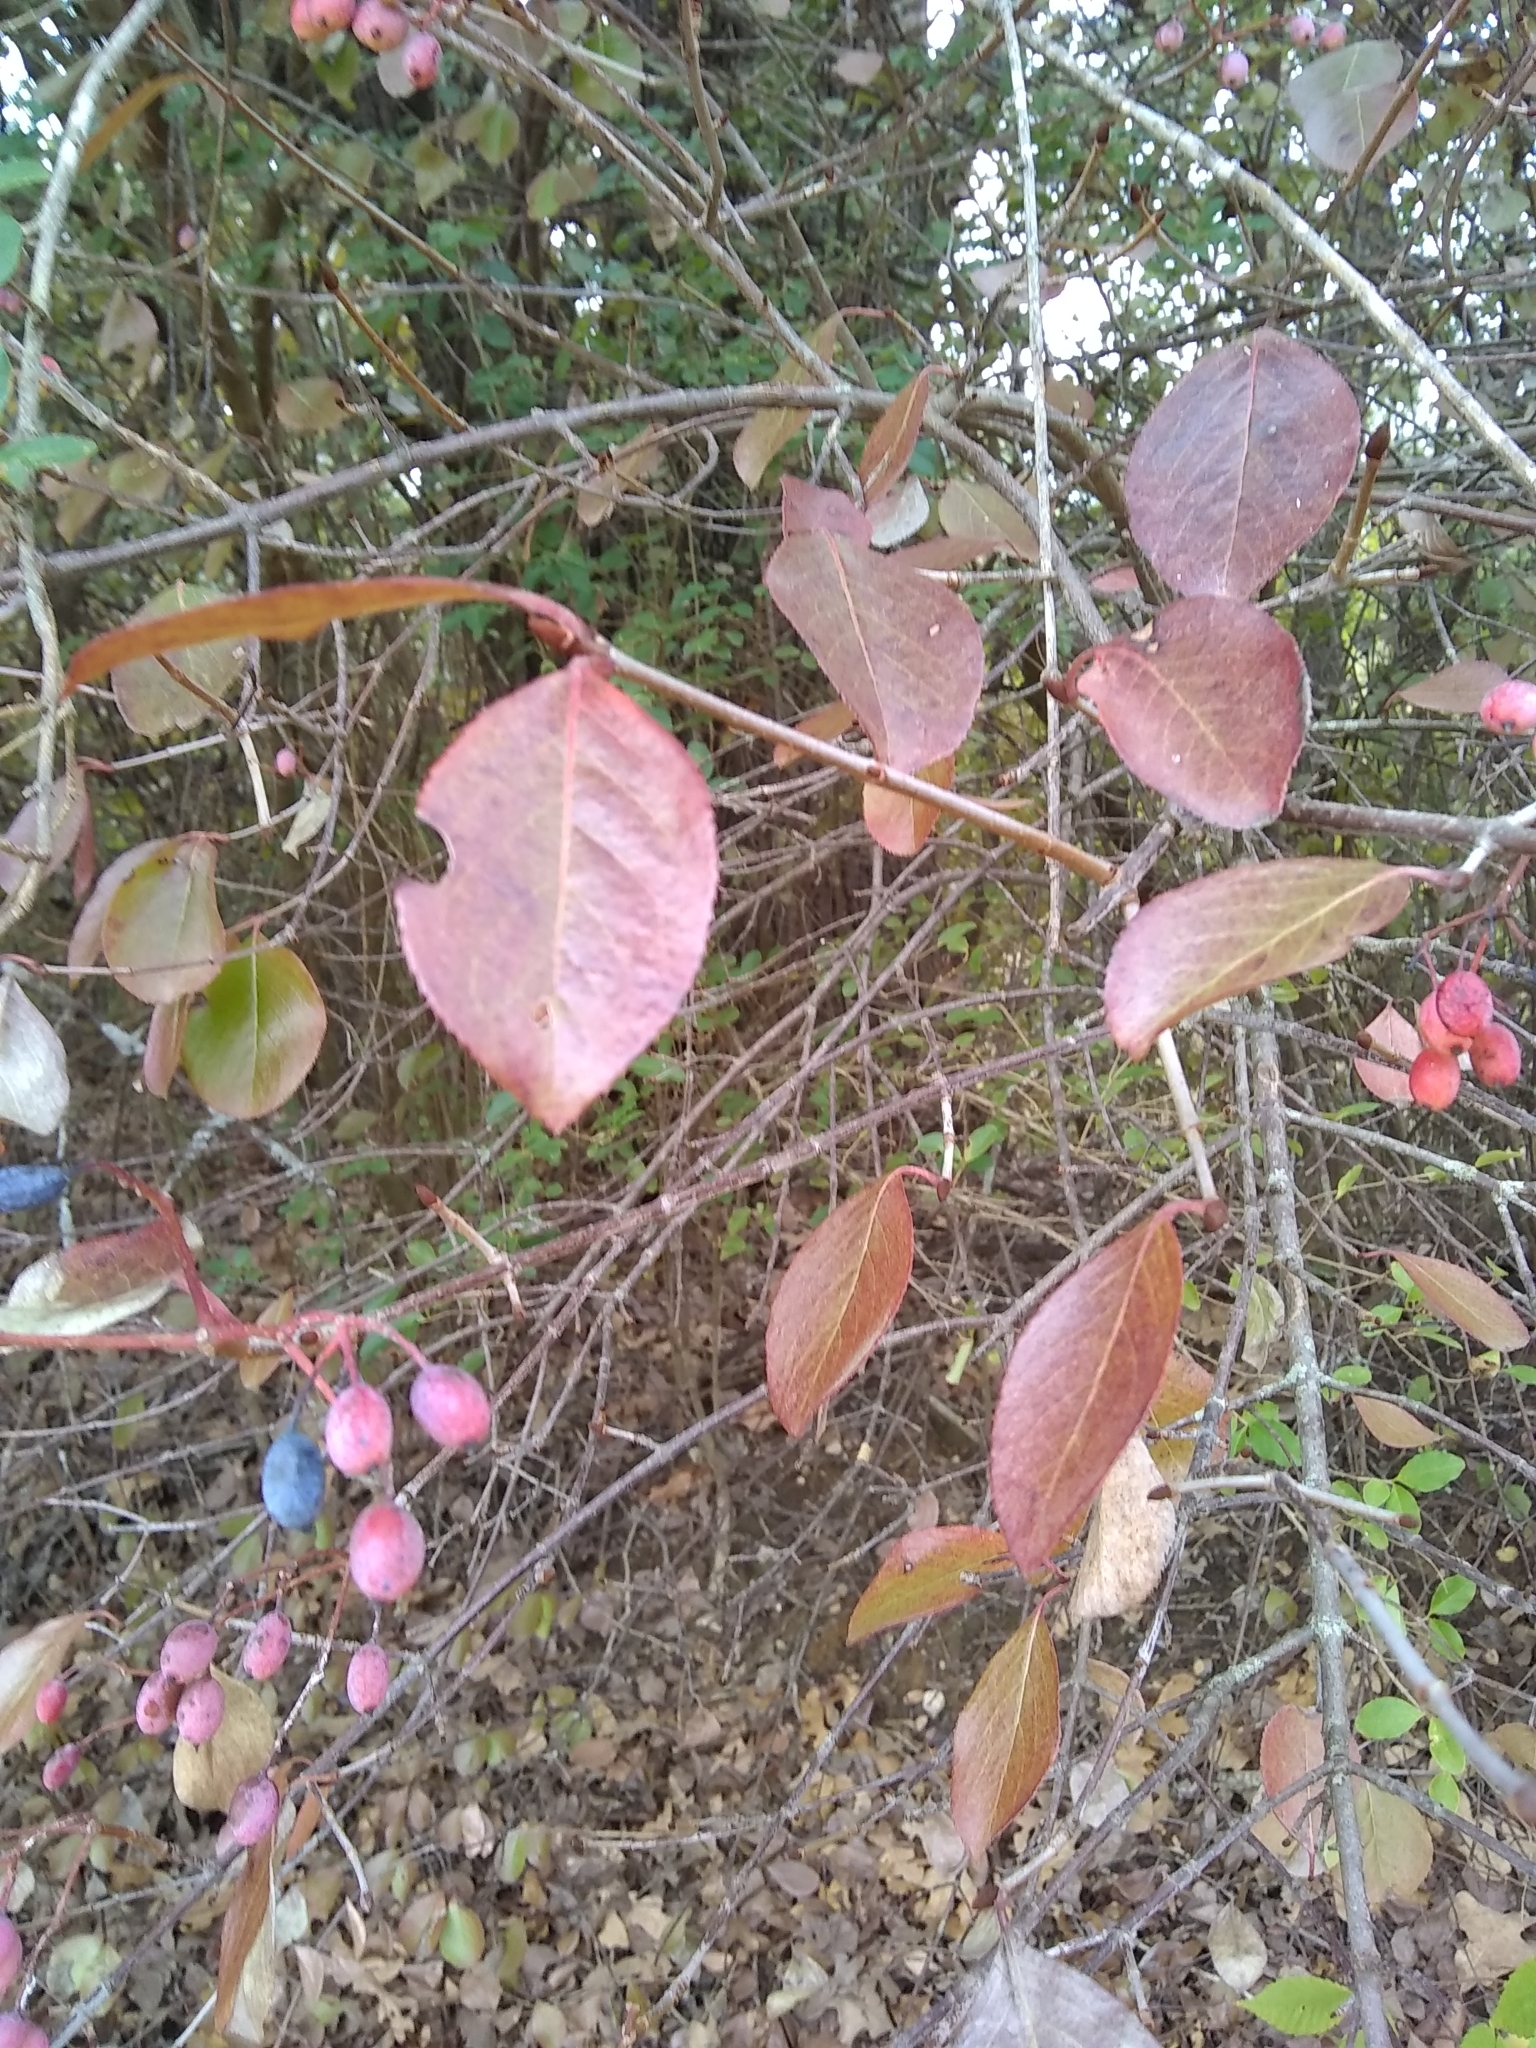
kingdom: Plantae
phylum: Tracheophyta
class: Magnoliopsida
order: Dipsacales
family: Viburnaceae
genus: Viburnum
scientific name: Viburnum rufidulum
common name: Blue haw
